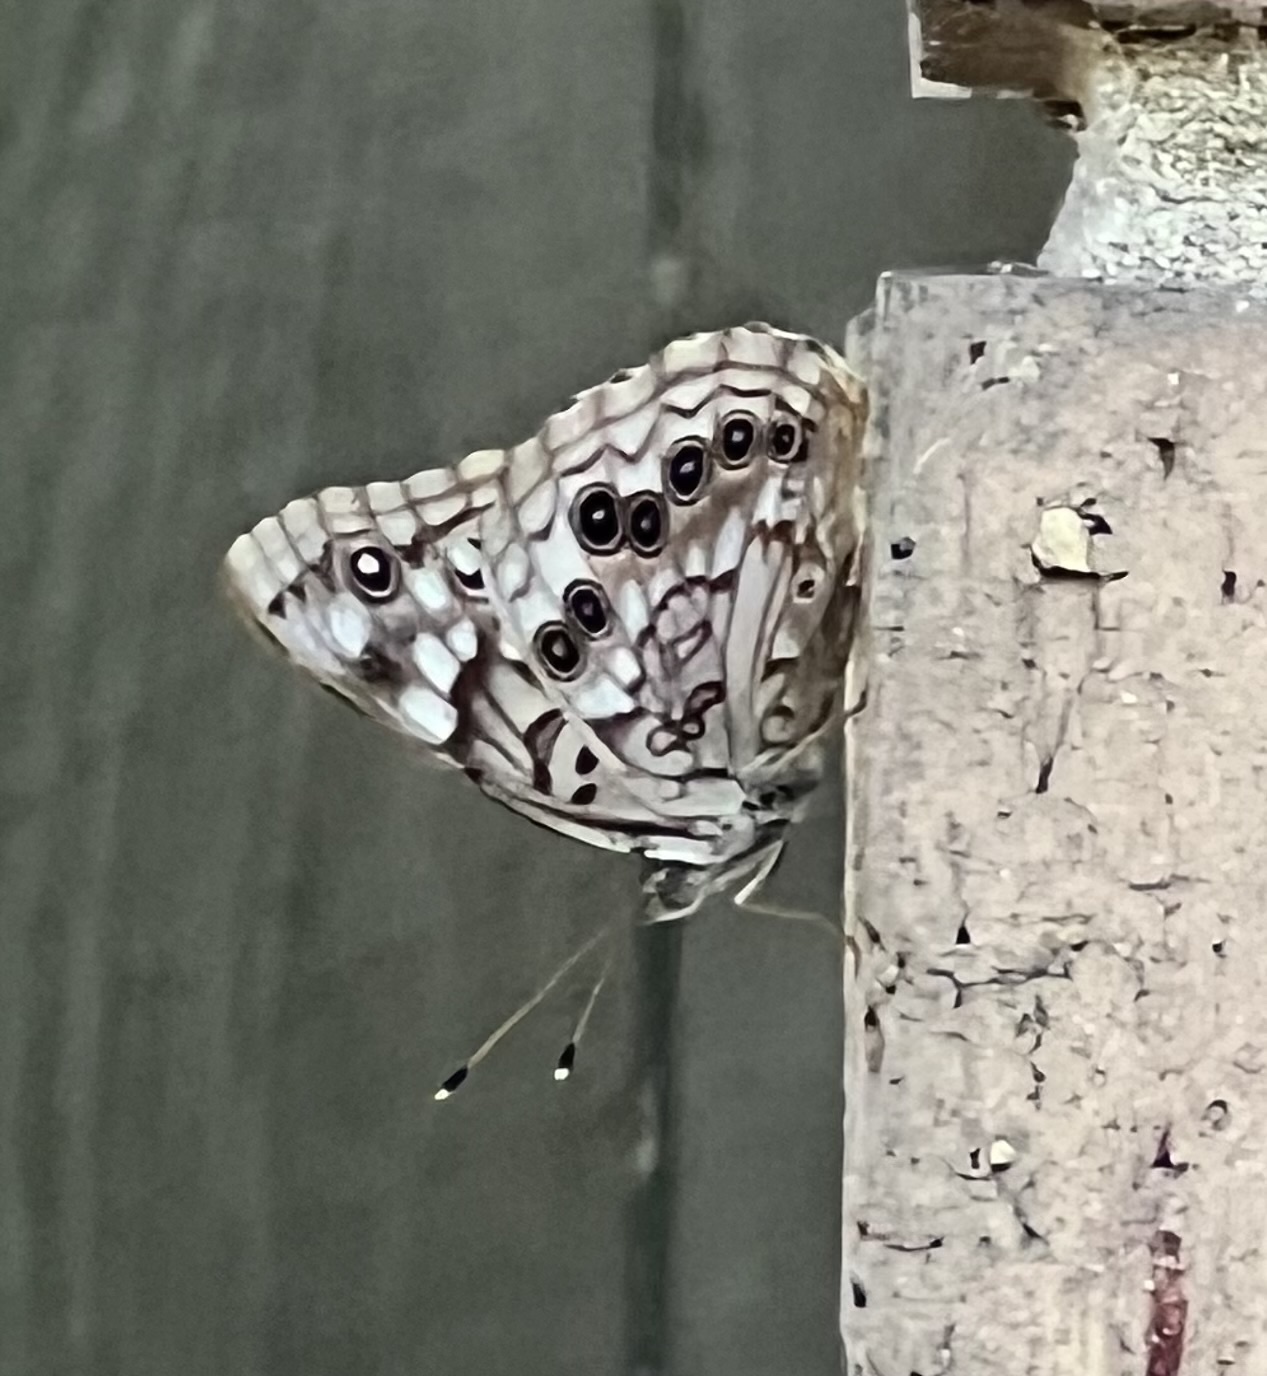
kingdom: Animalia
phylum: Arthropoda
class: Insecta
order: Lepidoptera
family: Nymphalidae
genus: Asterocampa
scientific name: Asterocampa celtis
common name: Hackberry emperor
